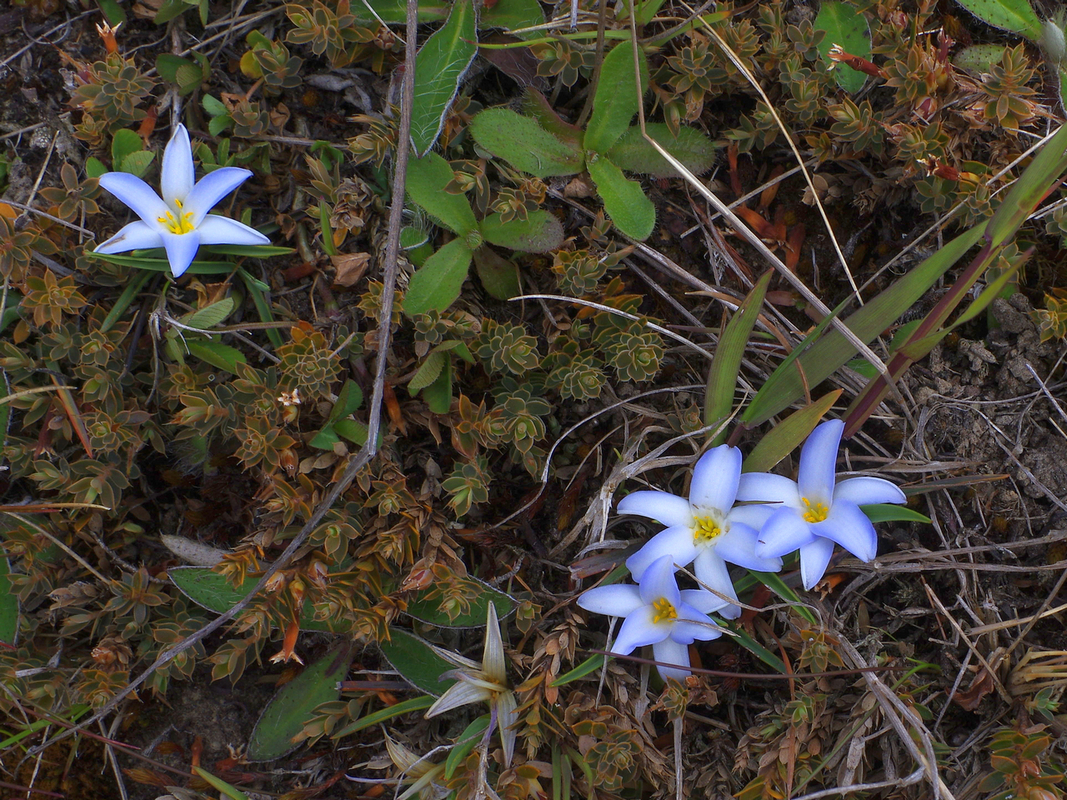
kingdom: Plantae
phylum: Tracheophyta
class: Liliopsida
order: Asparagales
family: Asphodelaceae
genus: Herpolirion
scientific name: Herpolirion novae-zelandiae
